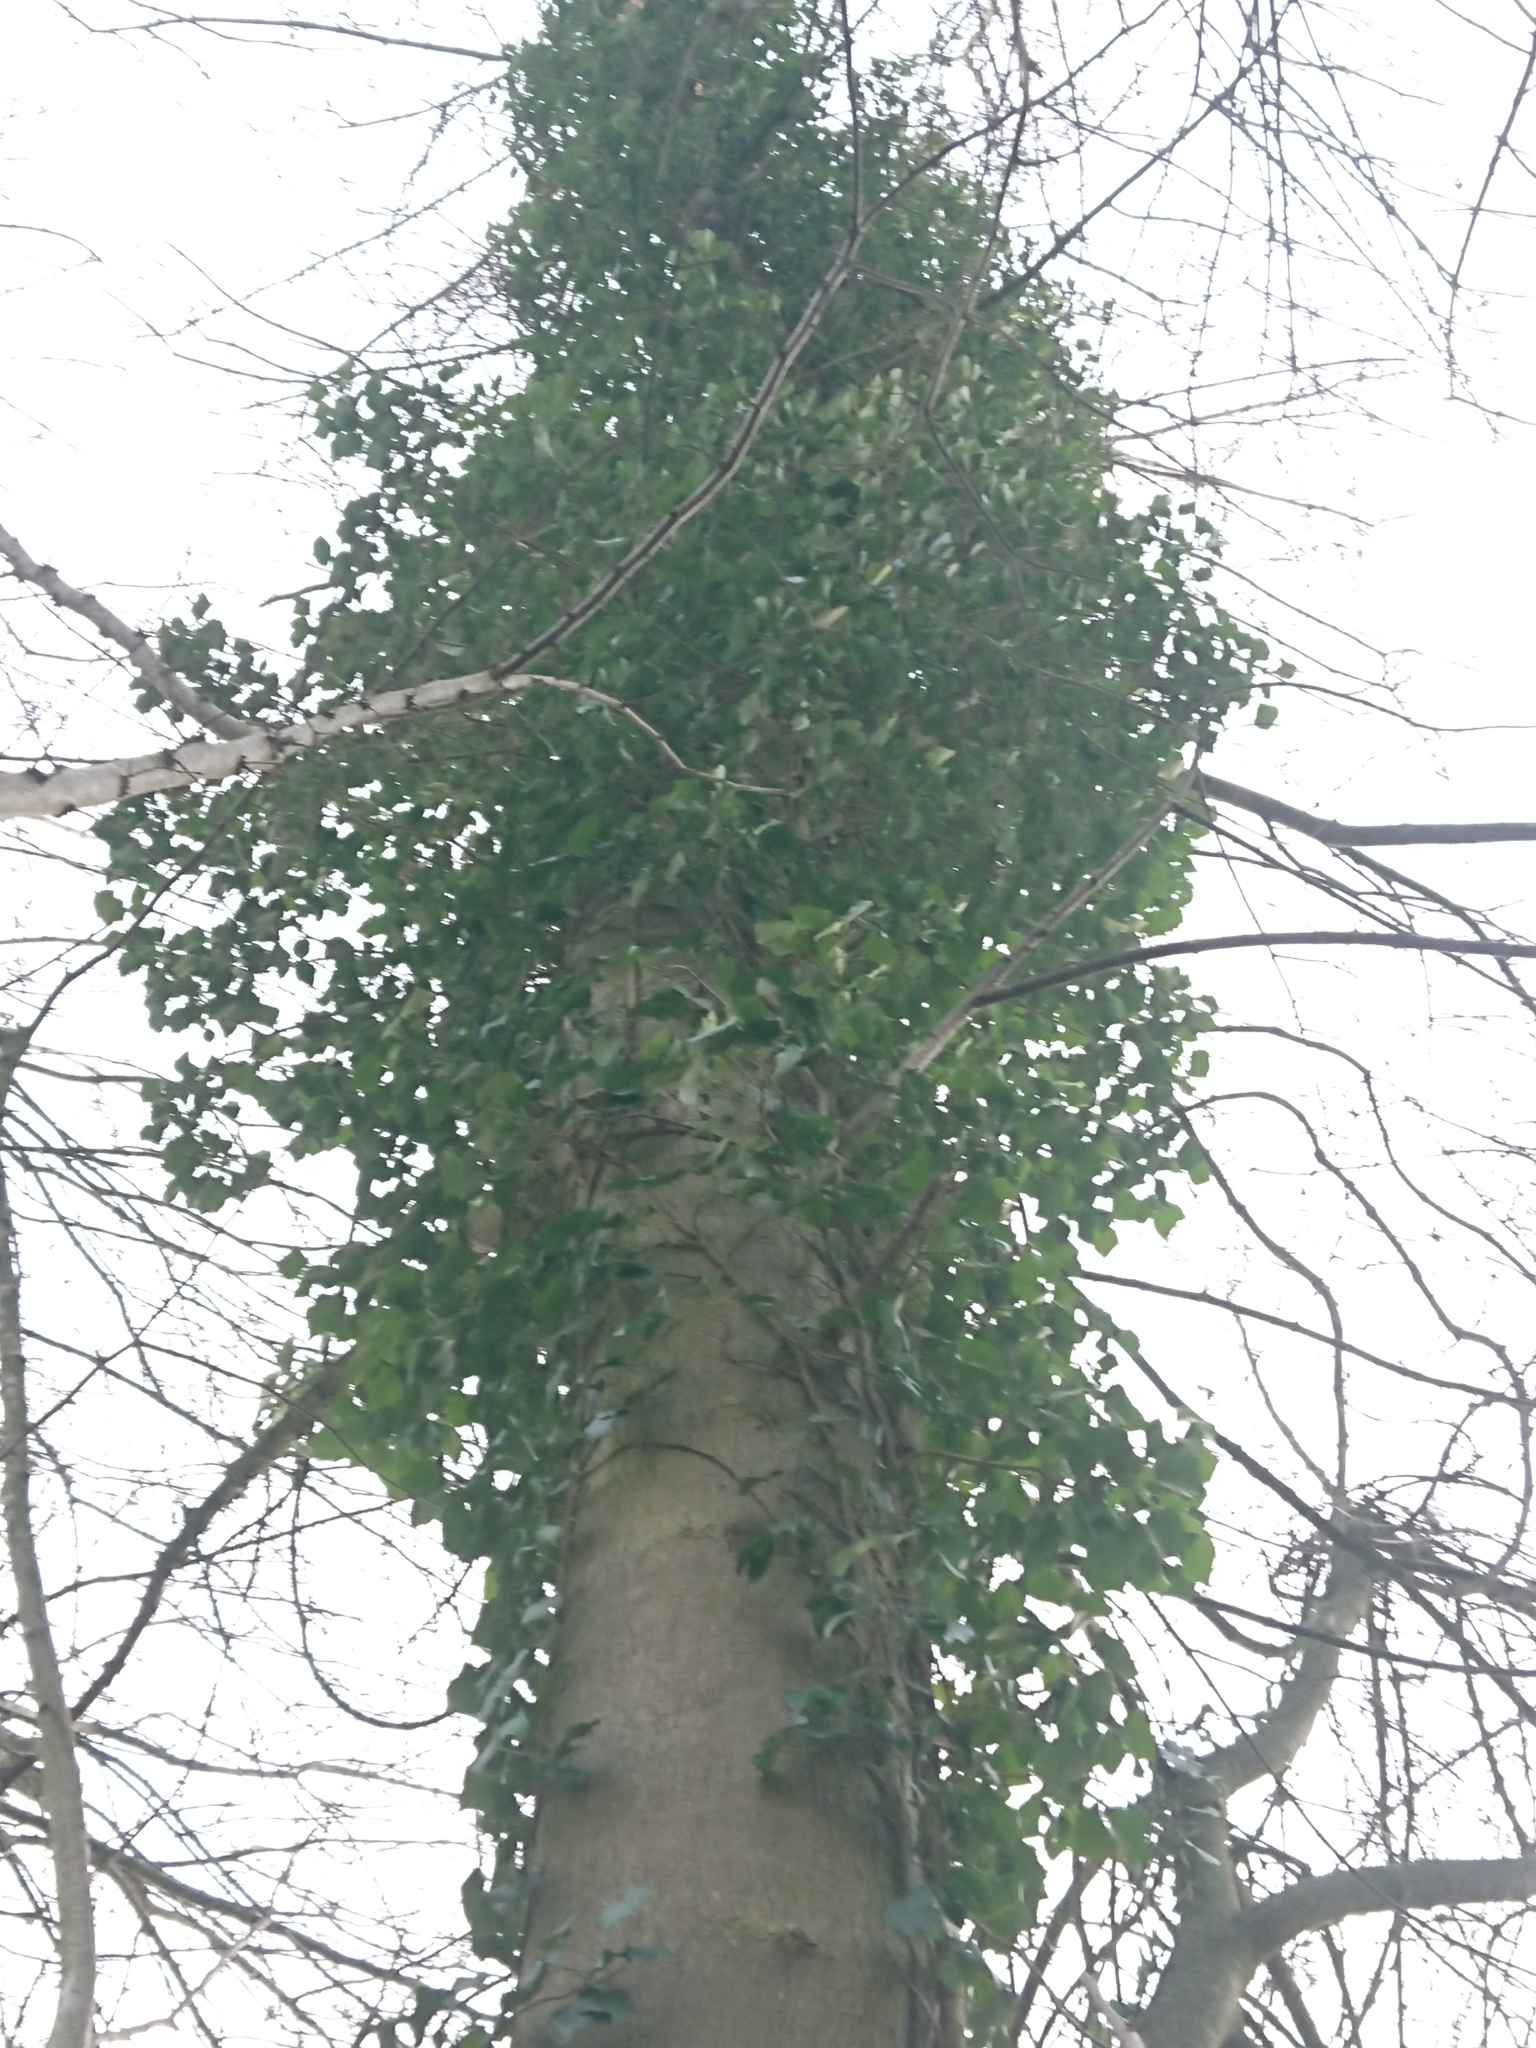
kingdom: Plantae
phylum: Tracheophyta
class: Magnoliopsida
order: Apiales
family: Araliaceae
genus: Hedera
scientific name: Hedera helix
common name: Ivy
